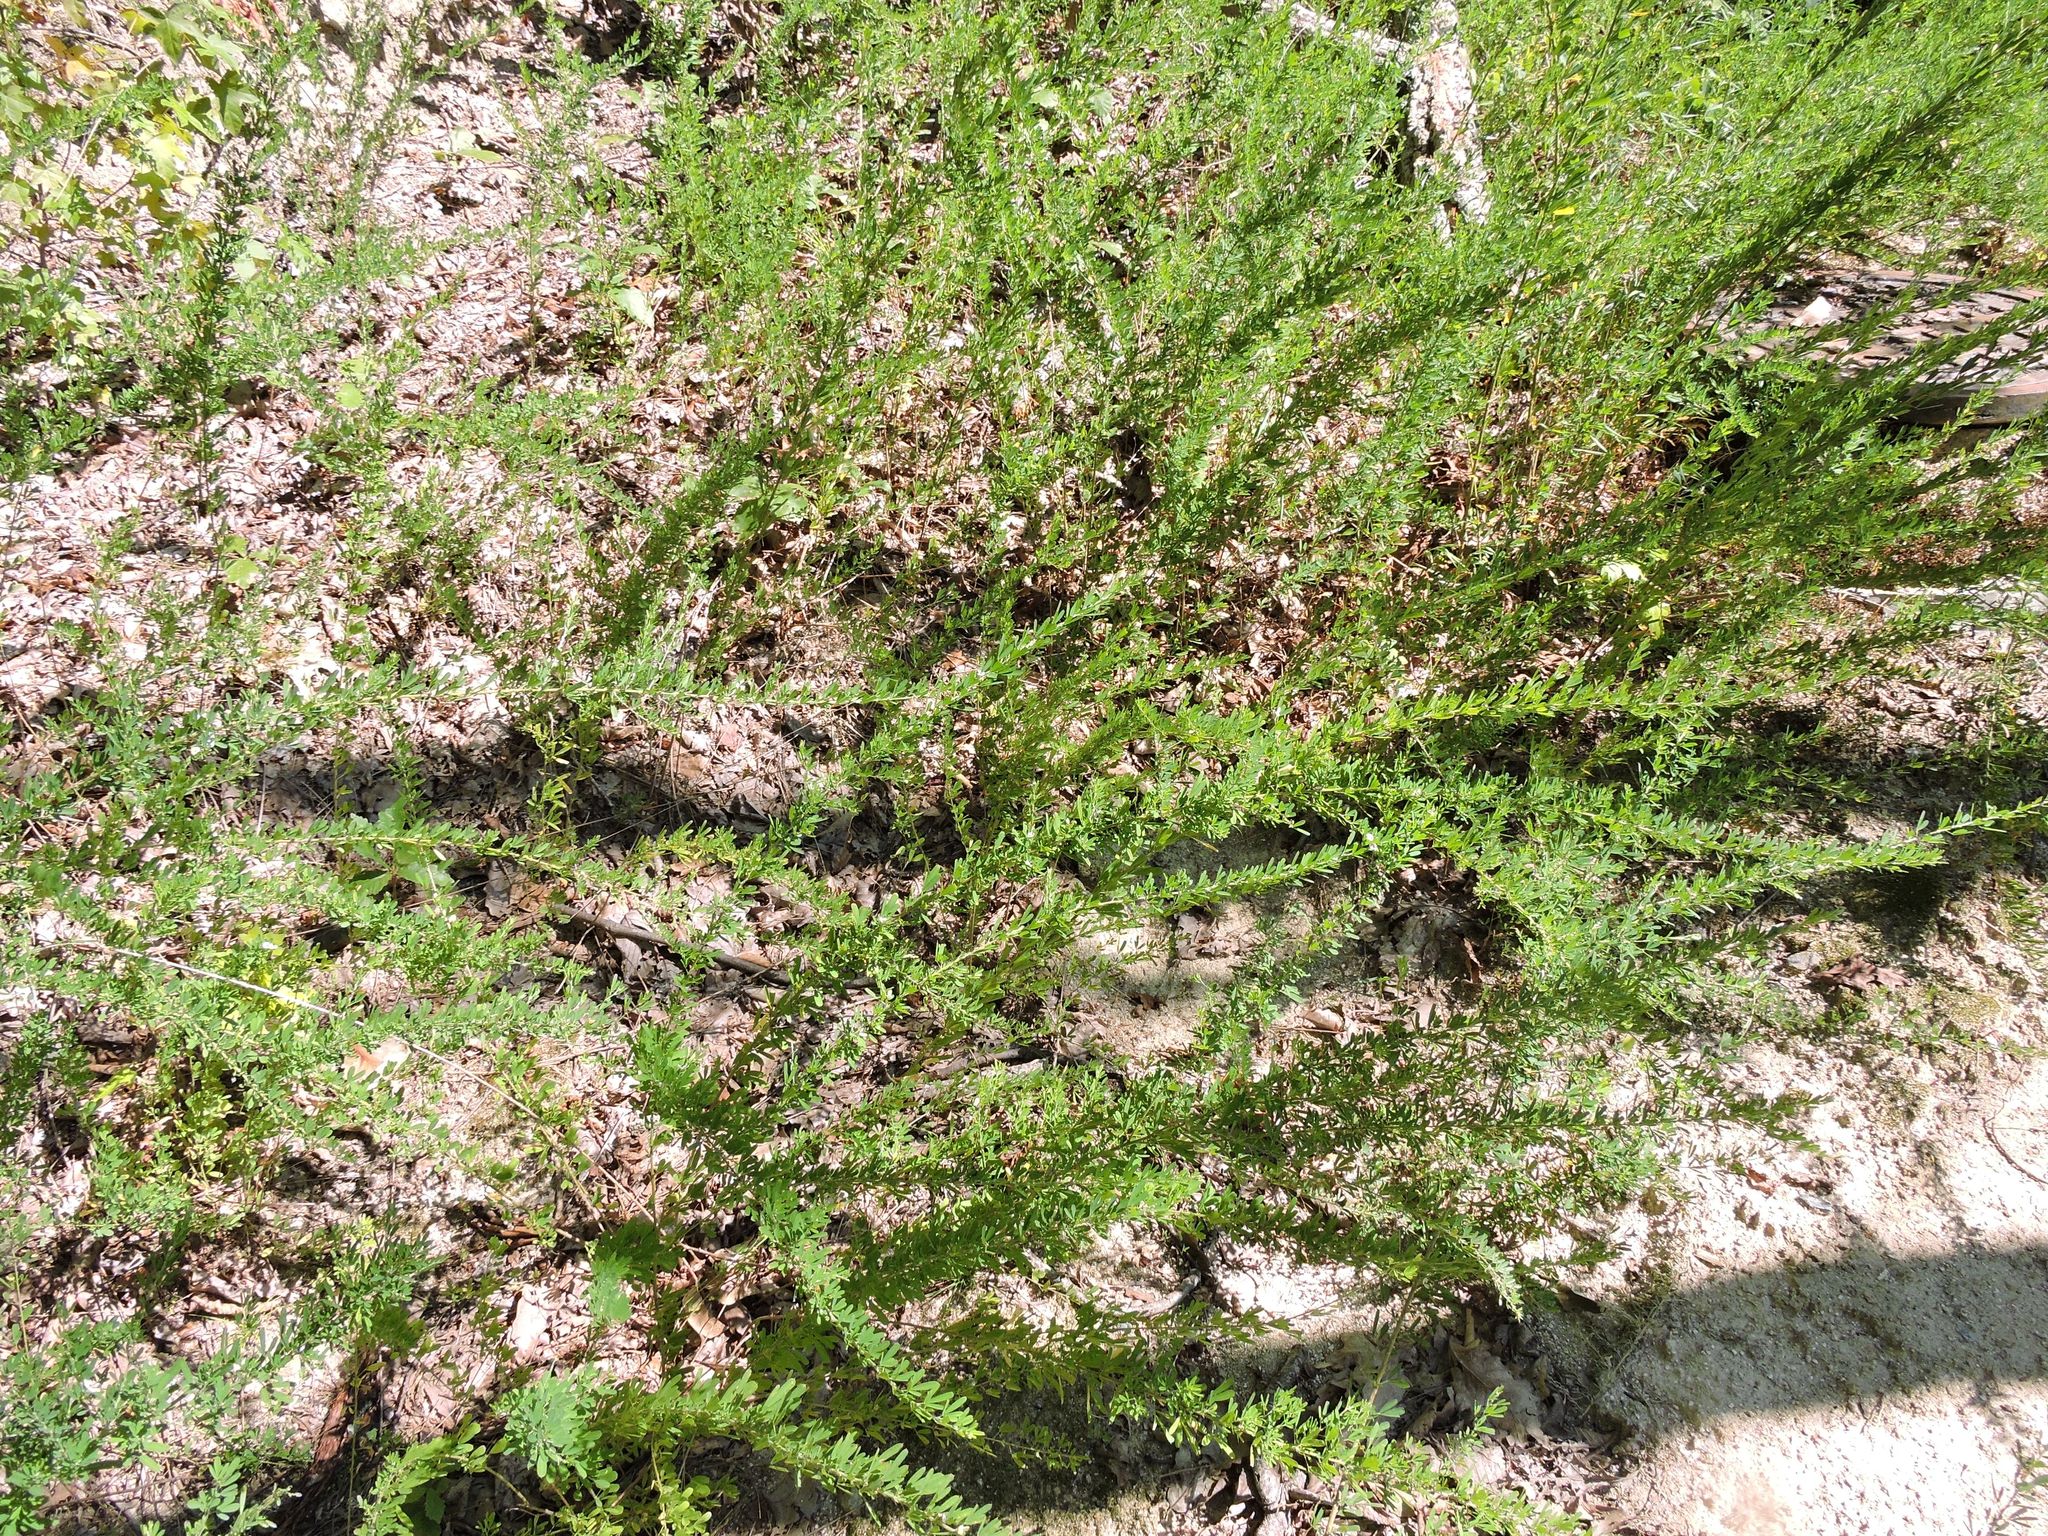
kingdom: Plantae
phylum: Tracheophyta
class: Magnoliopsida
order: Fabales
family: Fabaceae
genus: Lespedeza
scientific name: Lespedeza cuneata
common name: Chinese bush-clover
